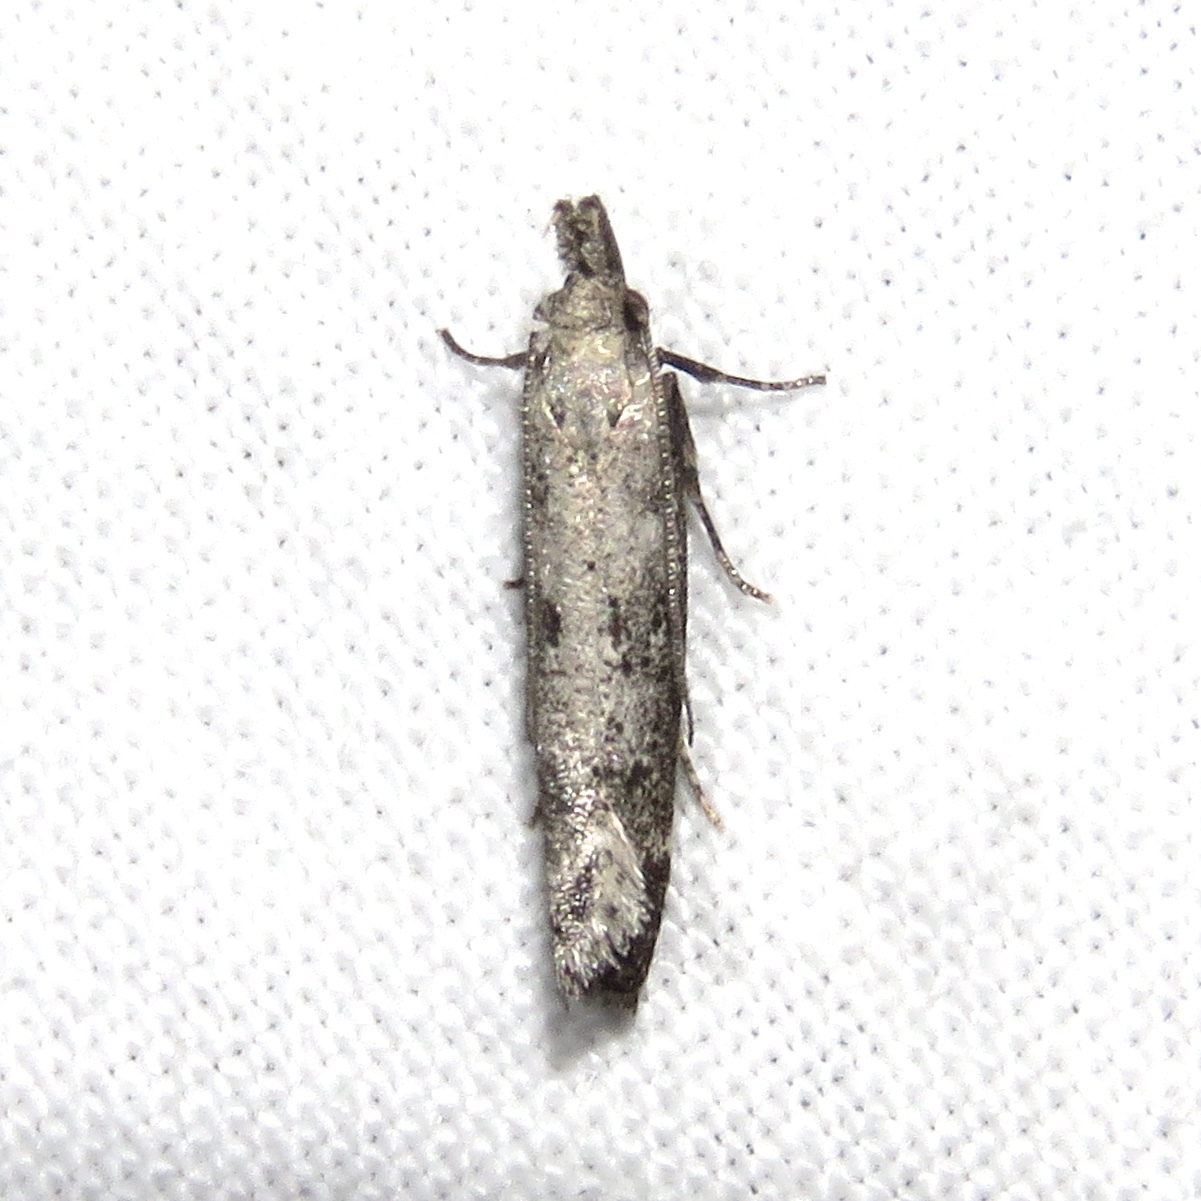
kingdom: Animalia
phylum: Arthropoda
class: Insecta
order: Lepidoptera
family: Gelechiidae
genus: Dichomeris
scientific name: Dichomeris inversella
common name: Inverse dichomeris moth
